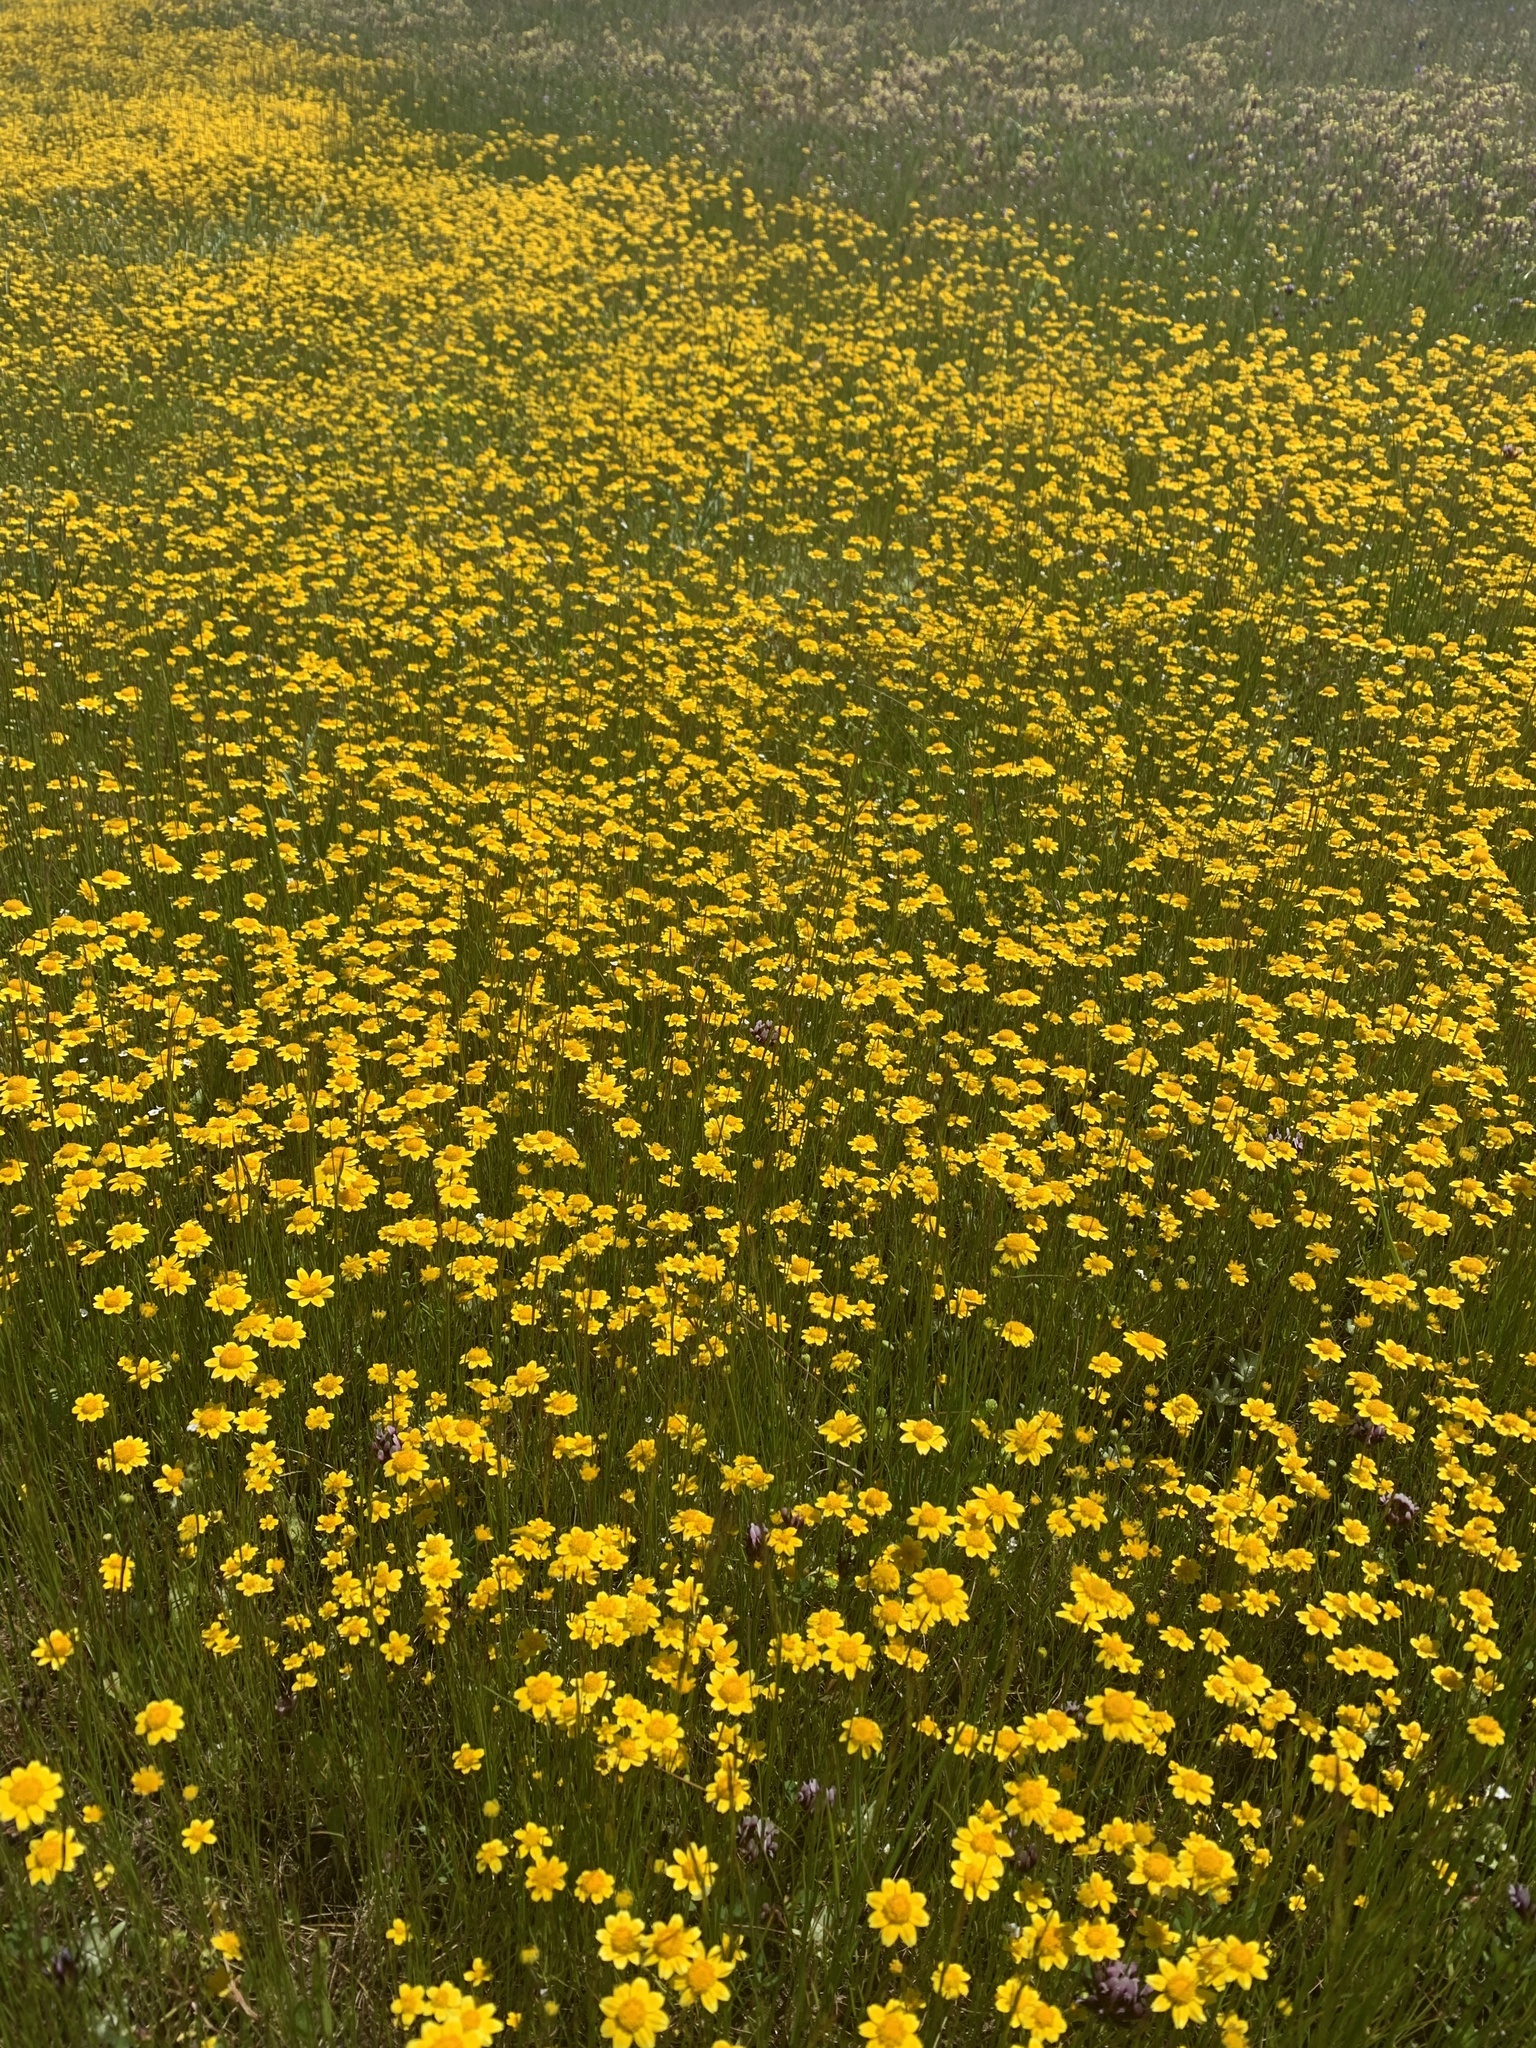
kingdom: Plantae
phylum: Tracheophyta
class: Magnoliopsida
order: Asterales
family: Asteraceae
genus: Lasthenia
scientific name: Lasthenia fremontii
